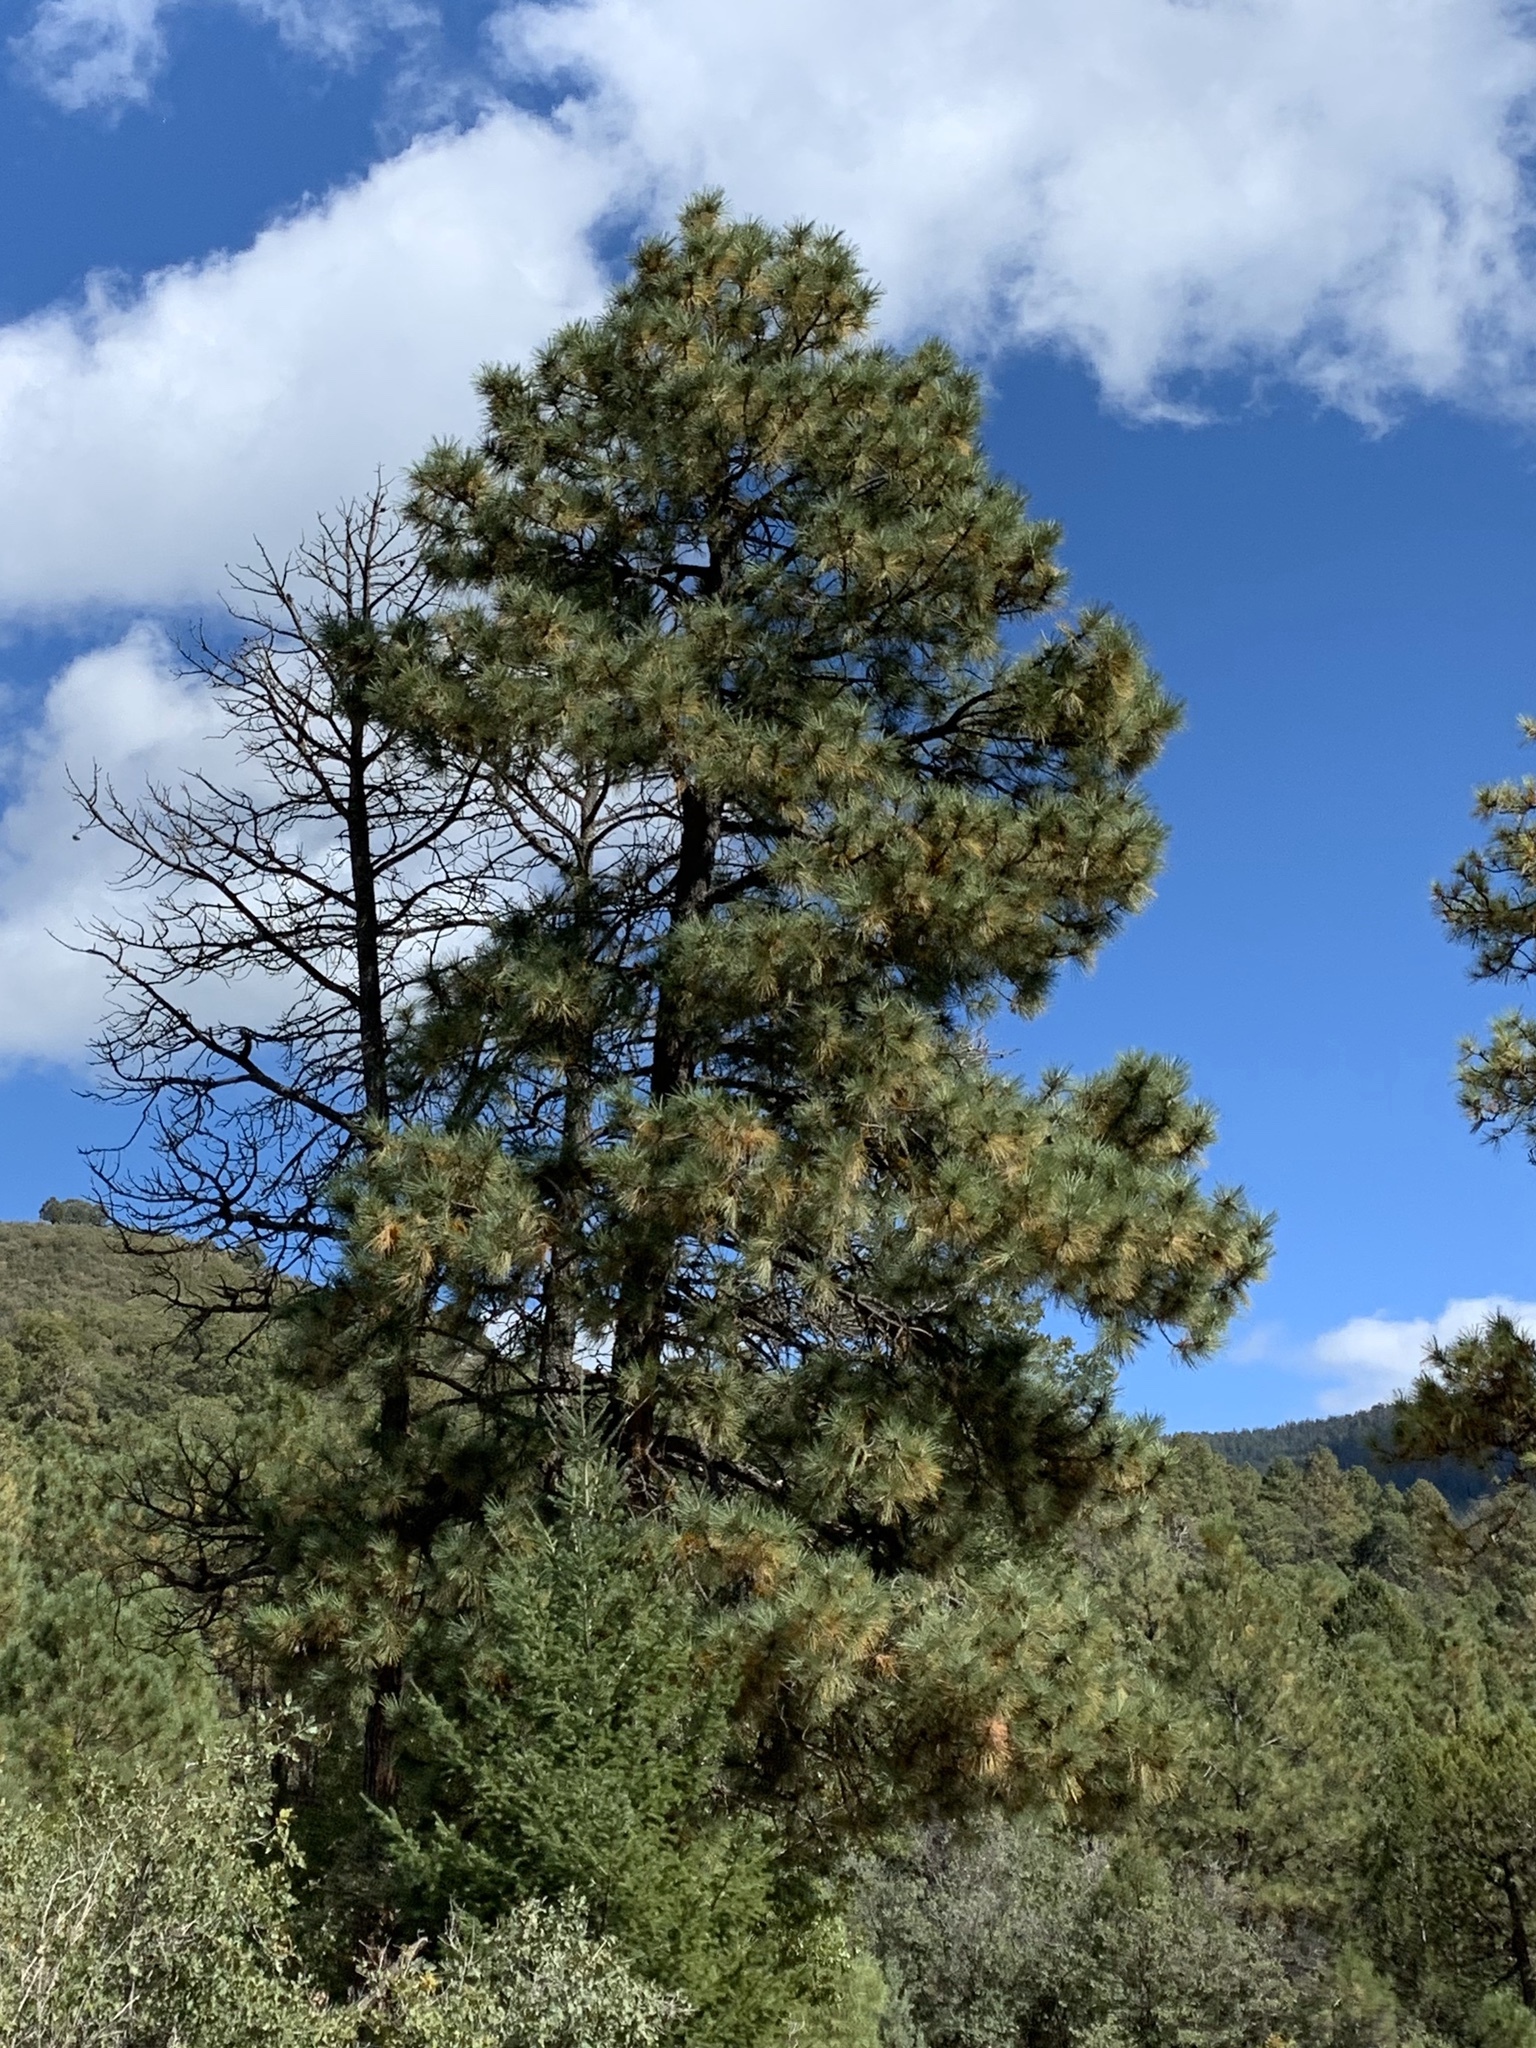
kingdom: Plantae
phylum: Tracheophyta
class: Pinopsida
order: Pinales
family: Pinaceae
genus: Pinus
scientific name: Pinus ponderosa
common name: Western yellow-pine
